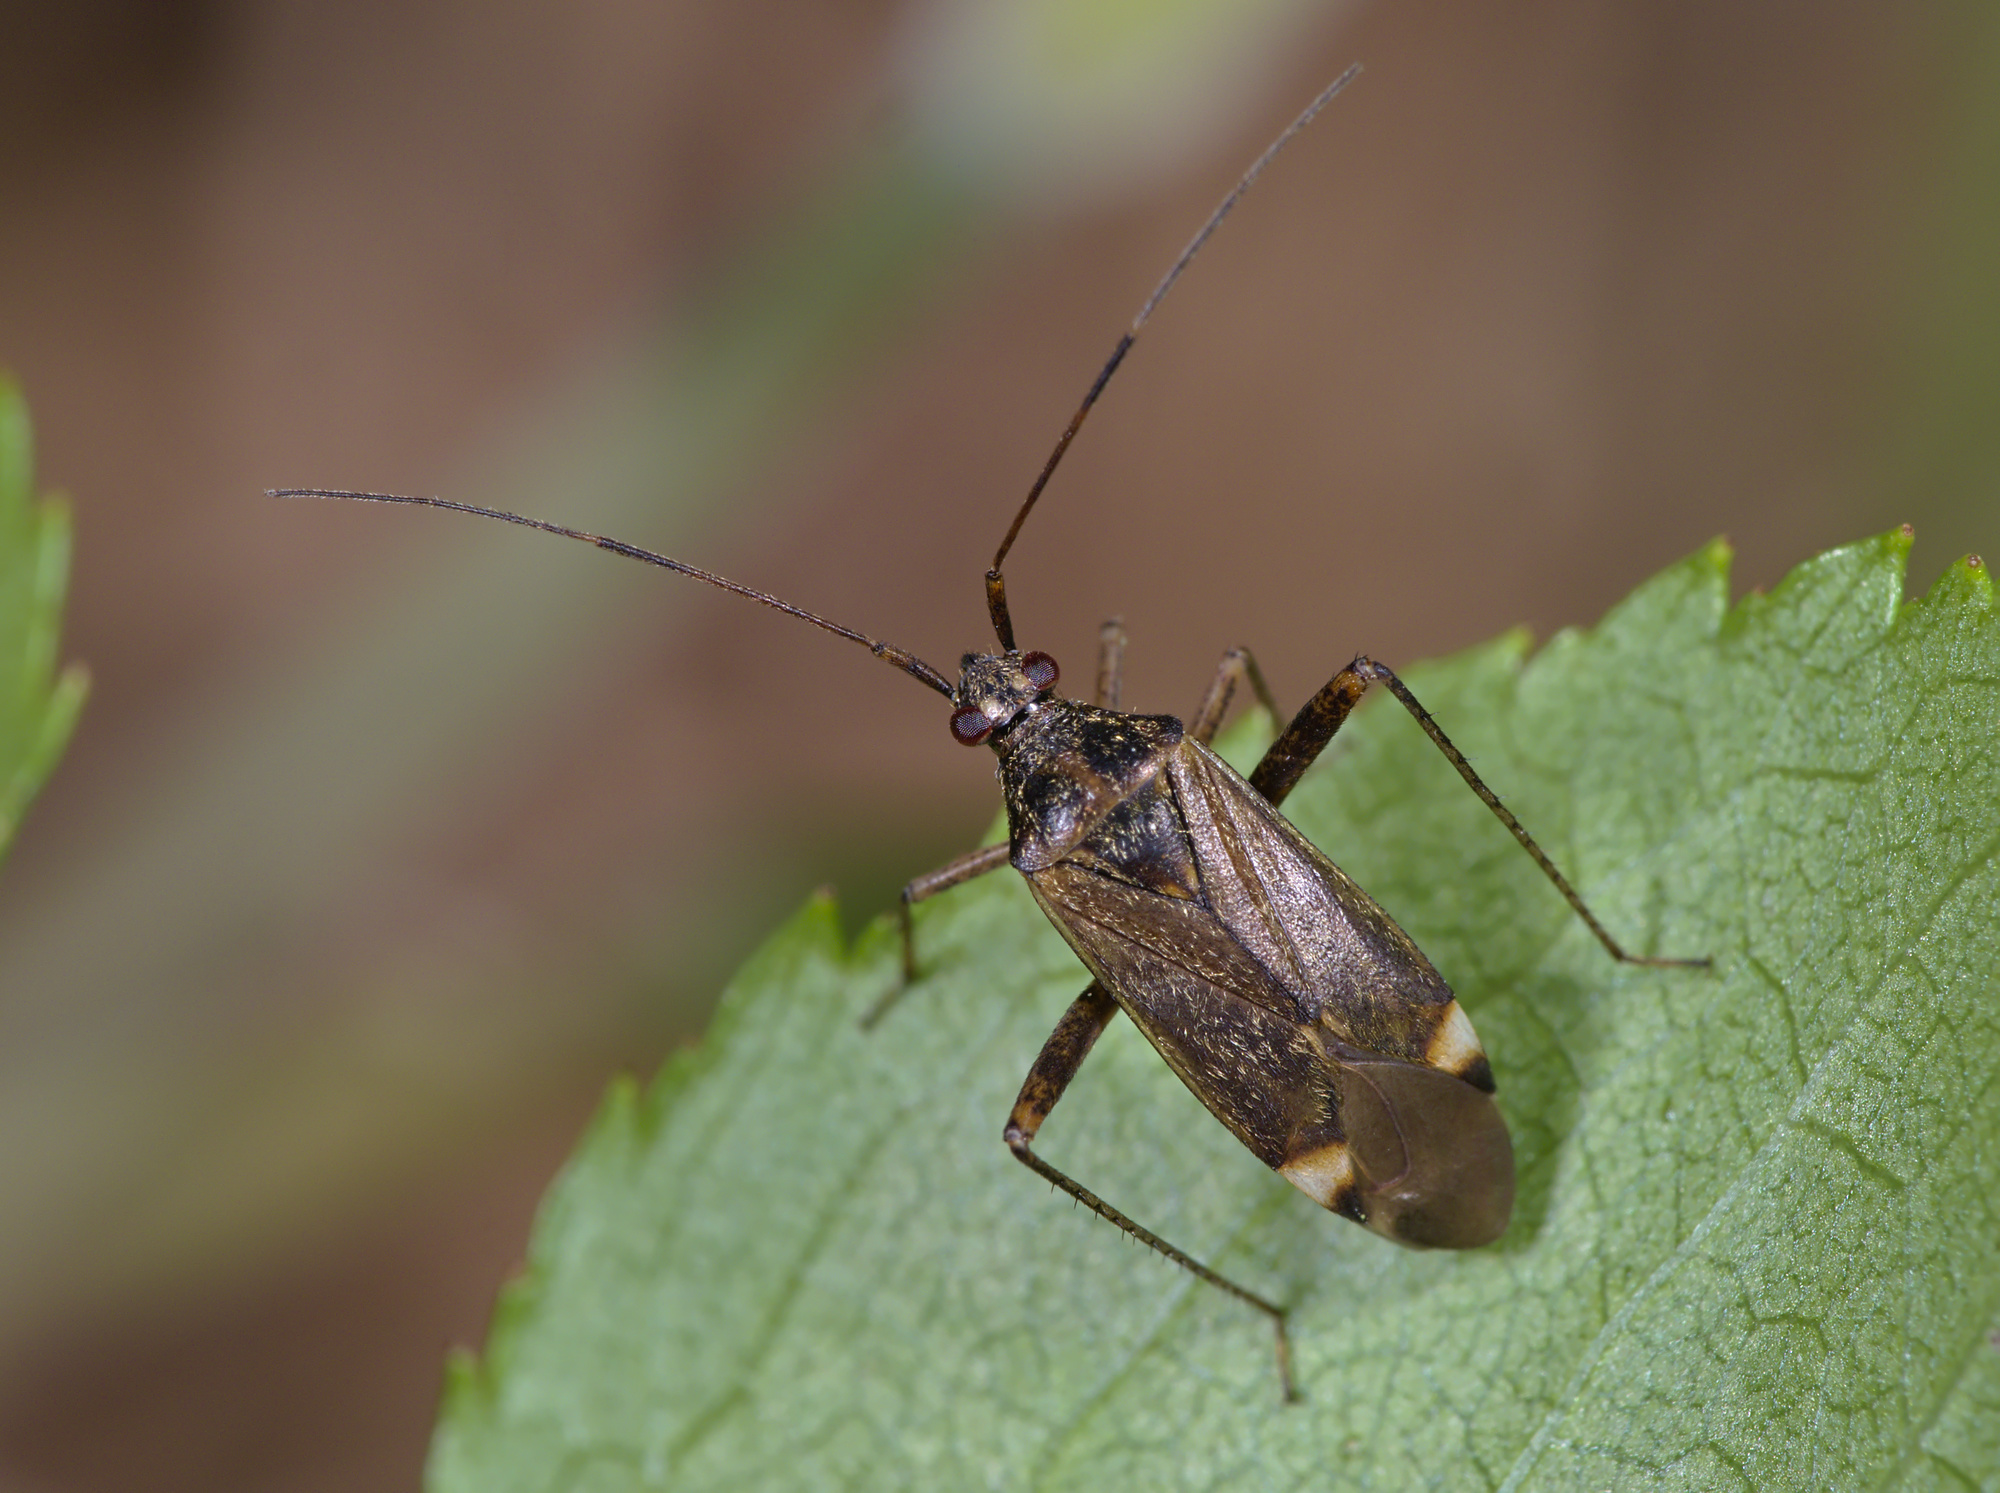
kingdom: Animalia
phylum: Arthropoda
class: Insecta
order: Hemiptera
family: Miridae
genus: Closterotomus
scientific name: Closterotomus fulvomaculatus
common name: Spotted plant bug
